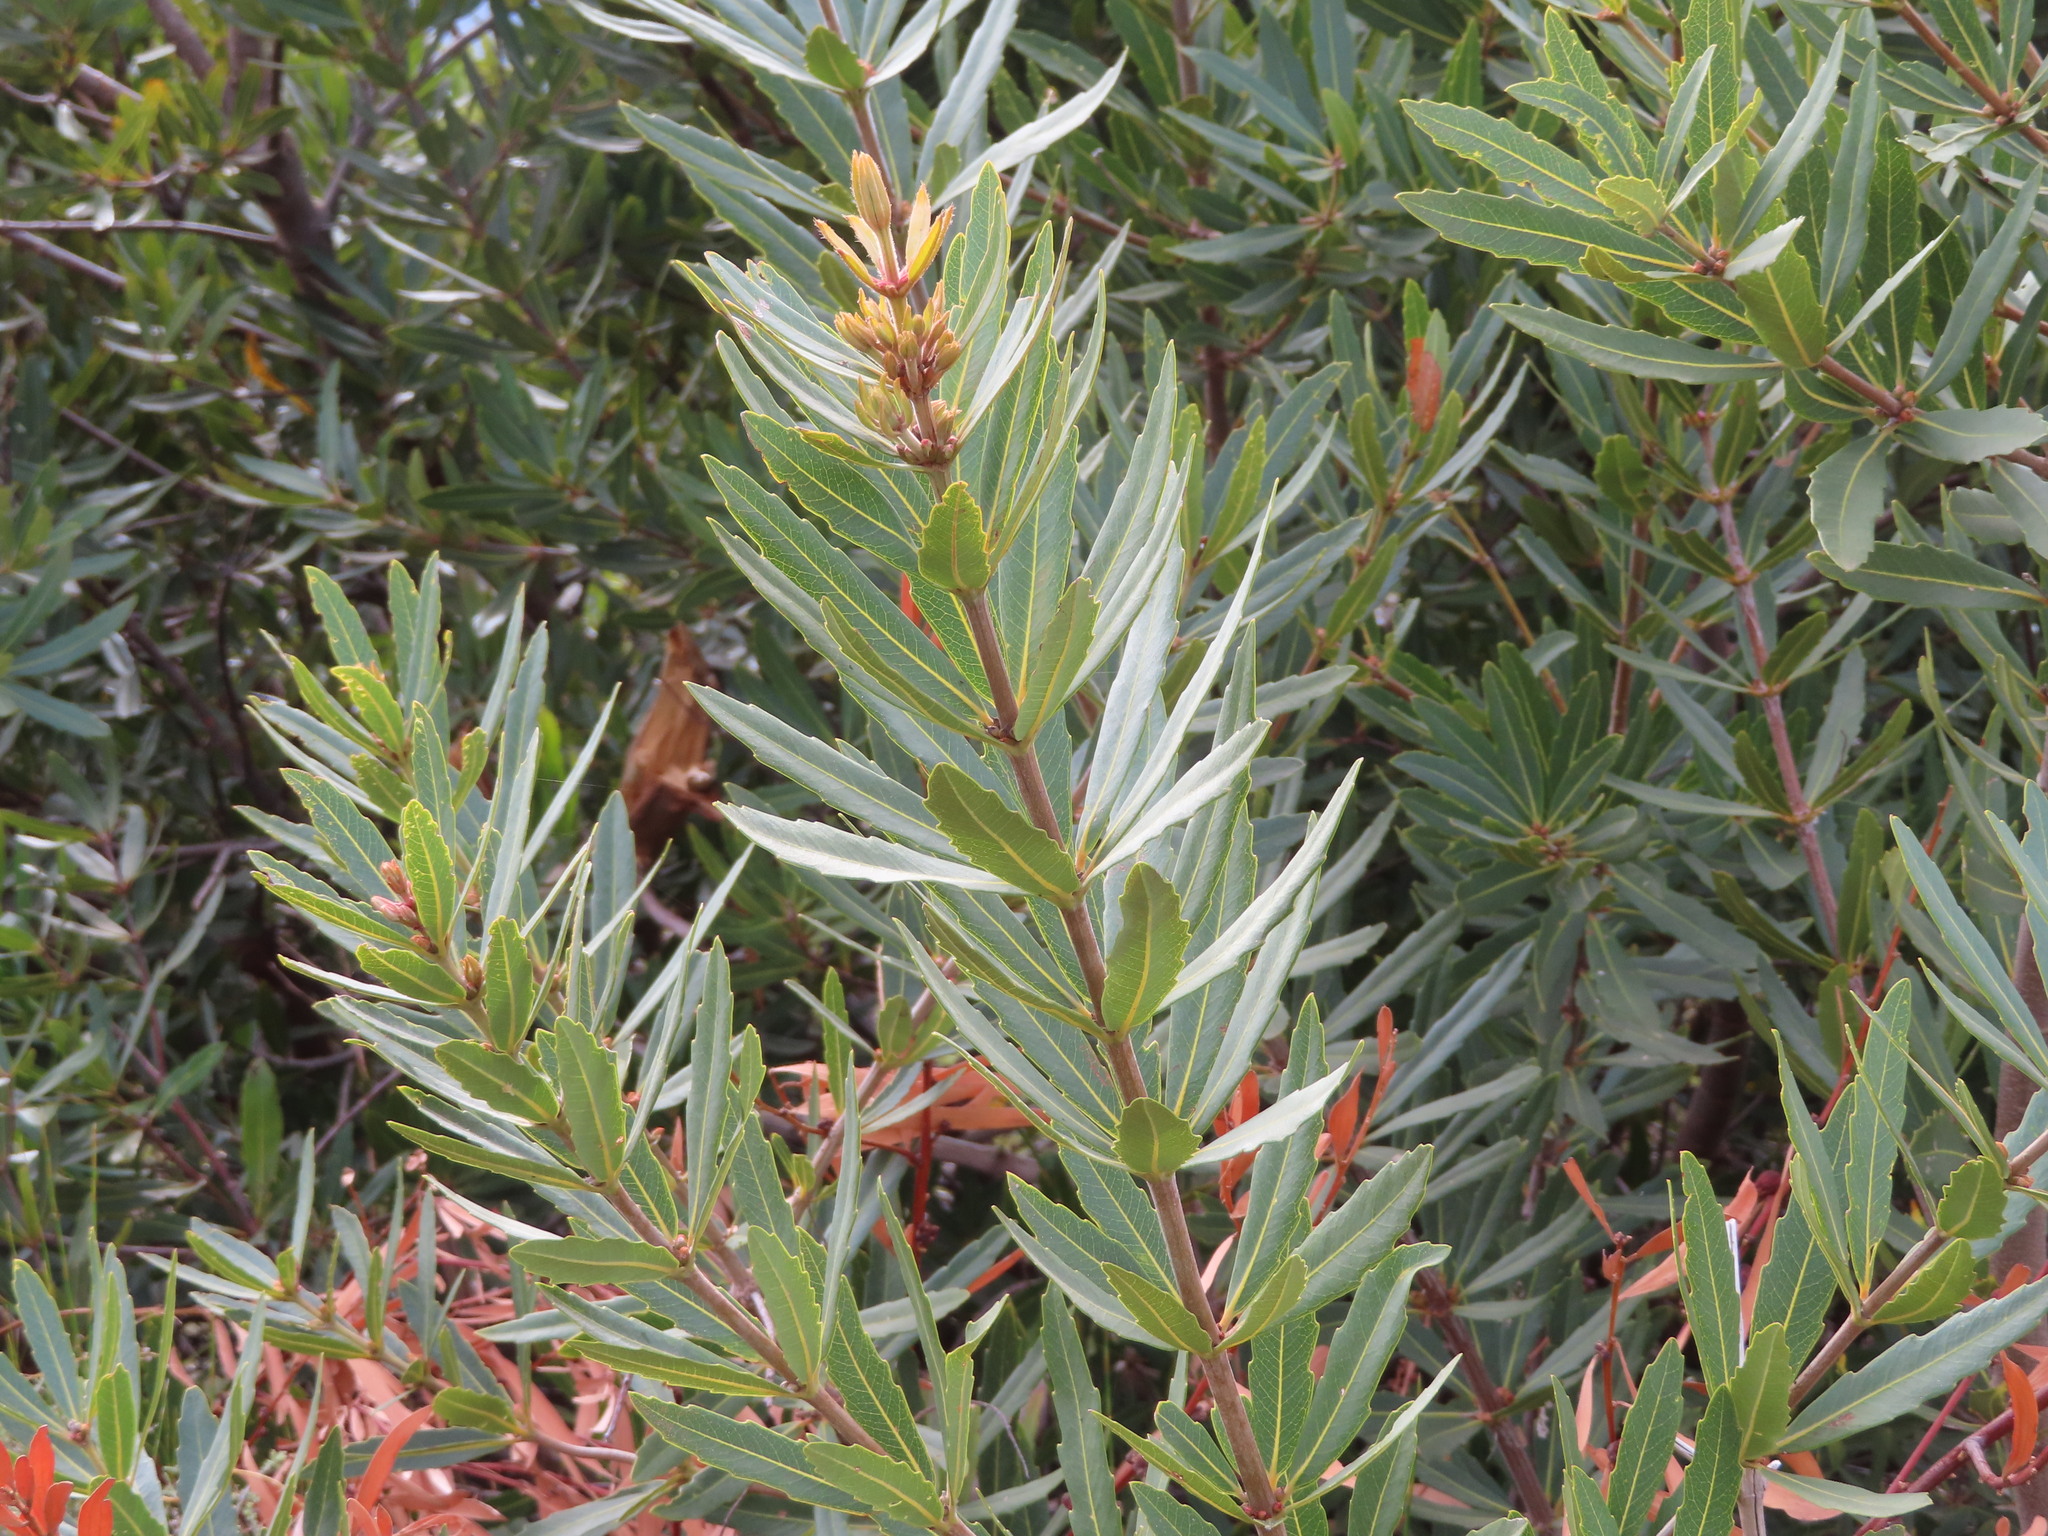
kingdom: Plantae
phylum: Tracheophyta
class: Magnoliopsida
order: Proteales
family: Proteaceae
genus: Brabejum
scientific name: Brabejum stellatifolium
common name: Wild almond
